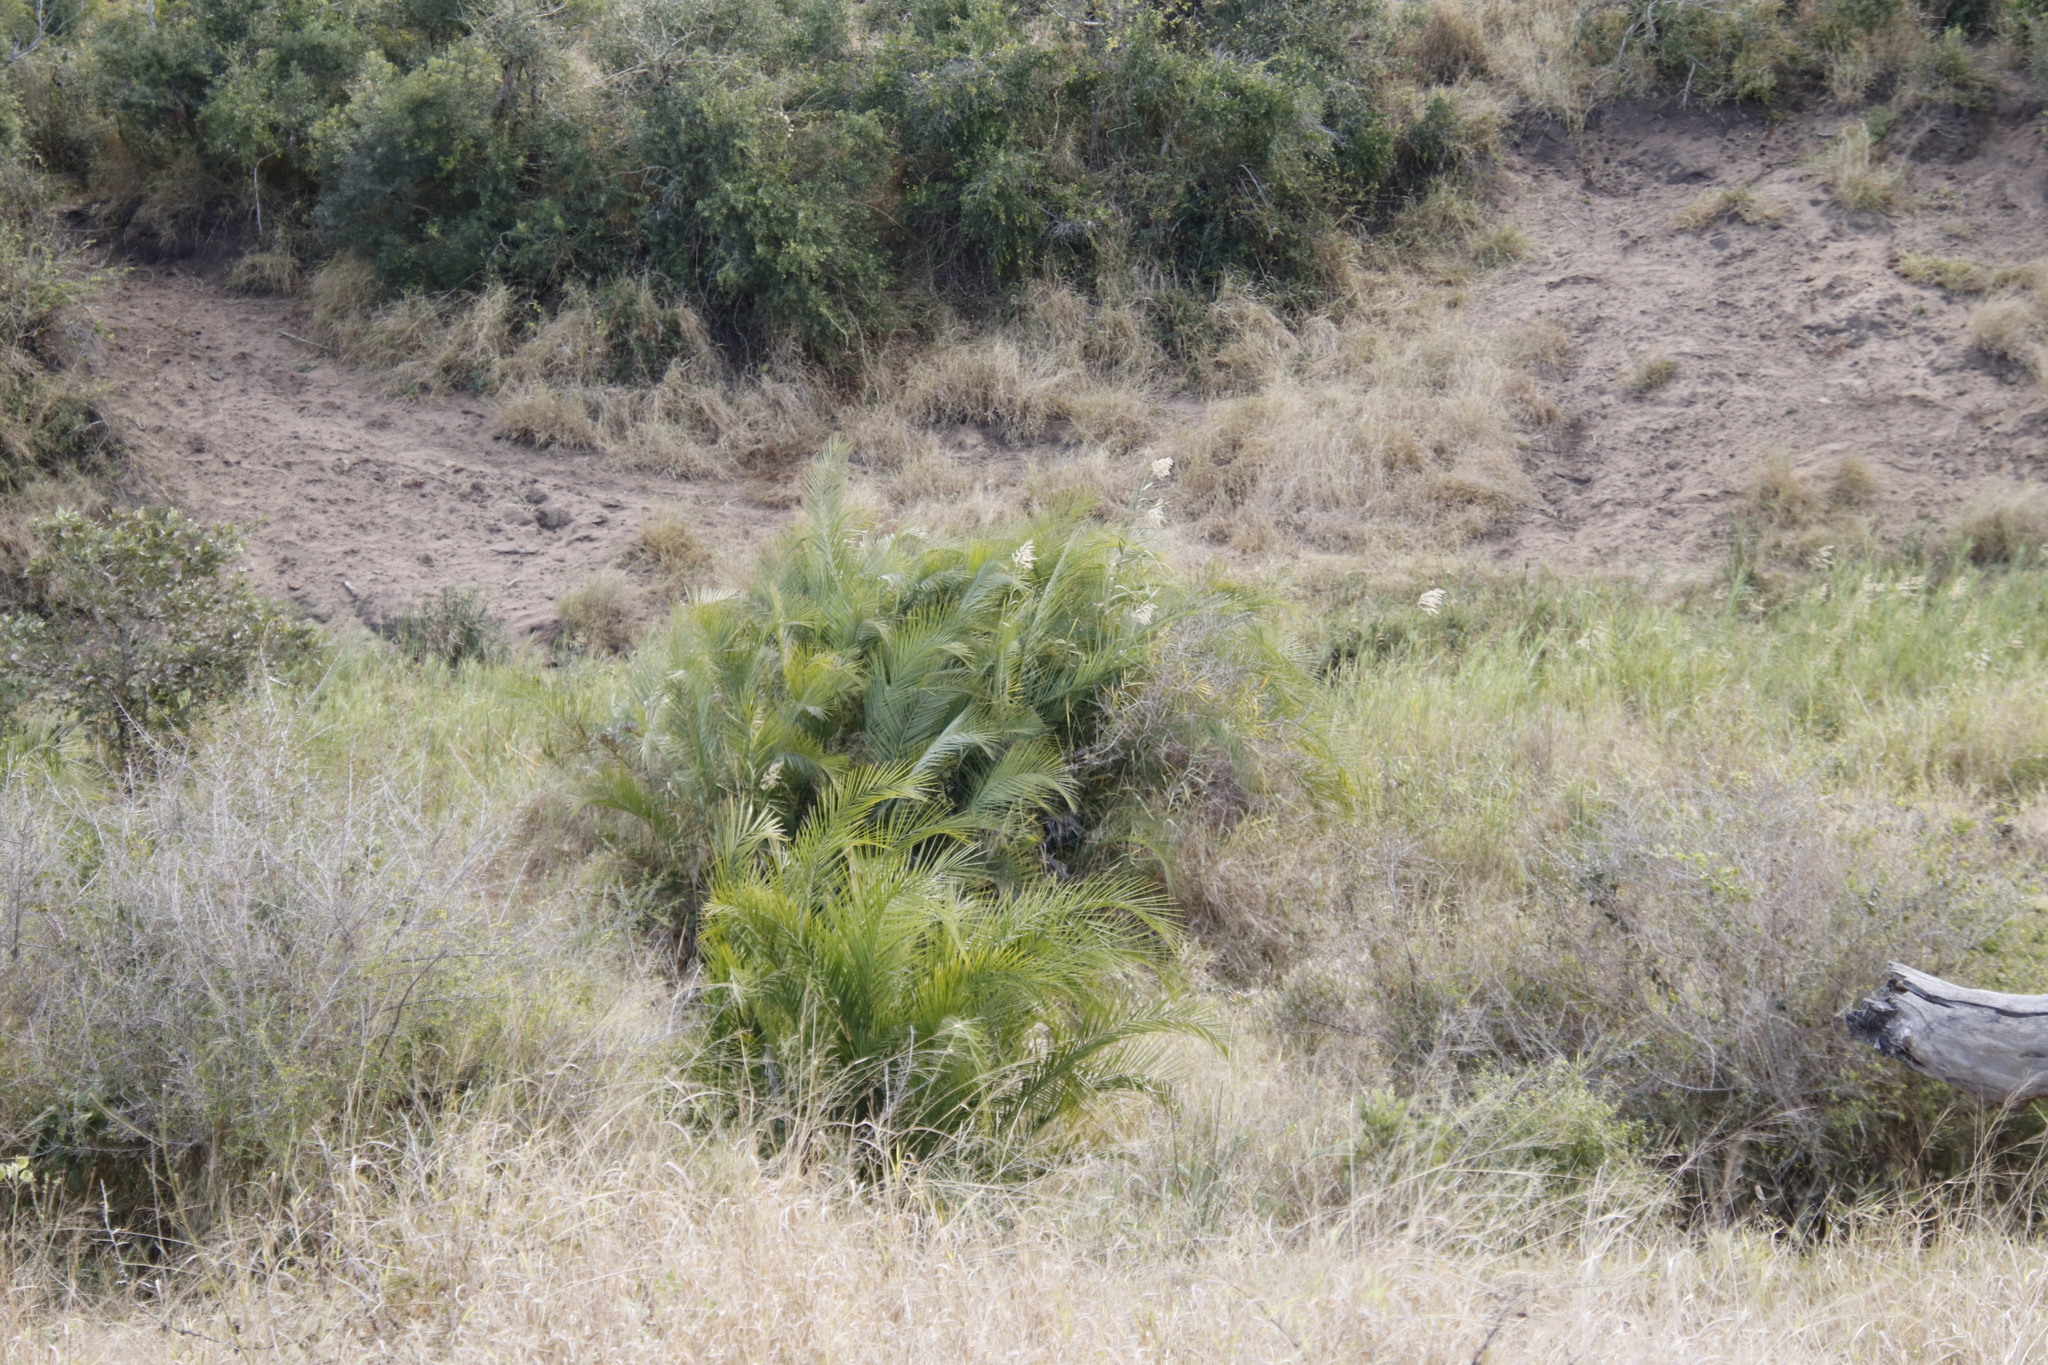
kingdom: Plantae
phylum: Tracheophyta
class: Liliopsida
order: Arecales
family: Arecaceae
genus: Phoenix
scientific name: Phoenix reclinata
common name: Senegal date palm
